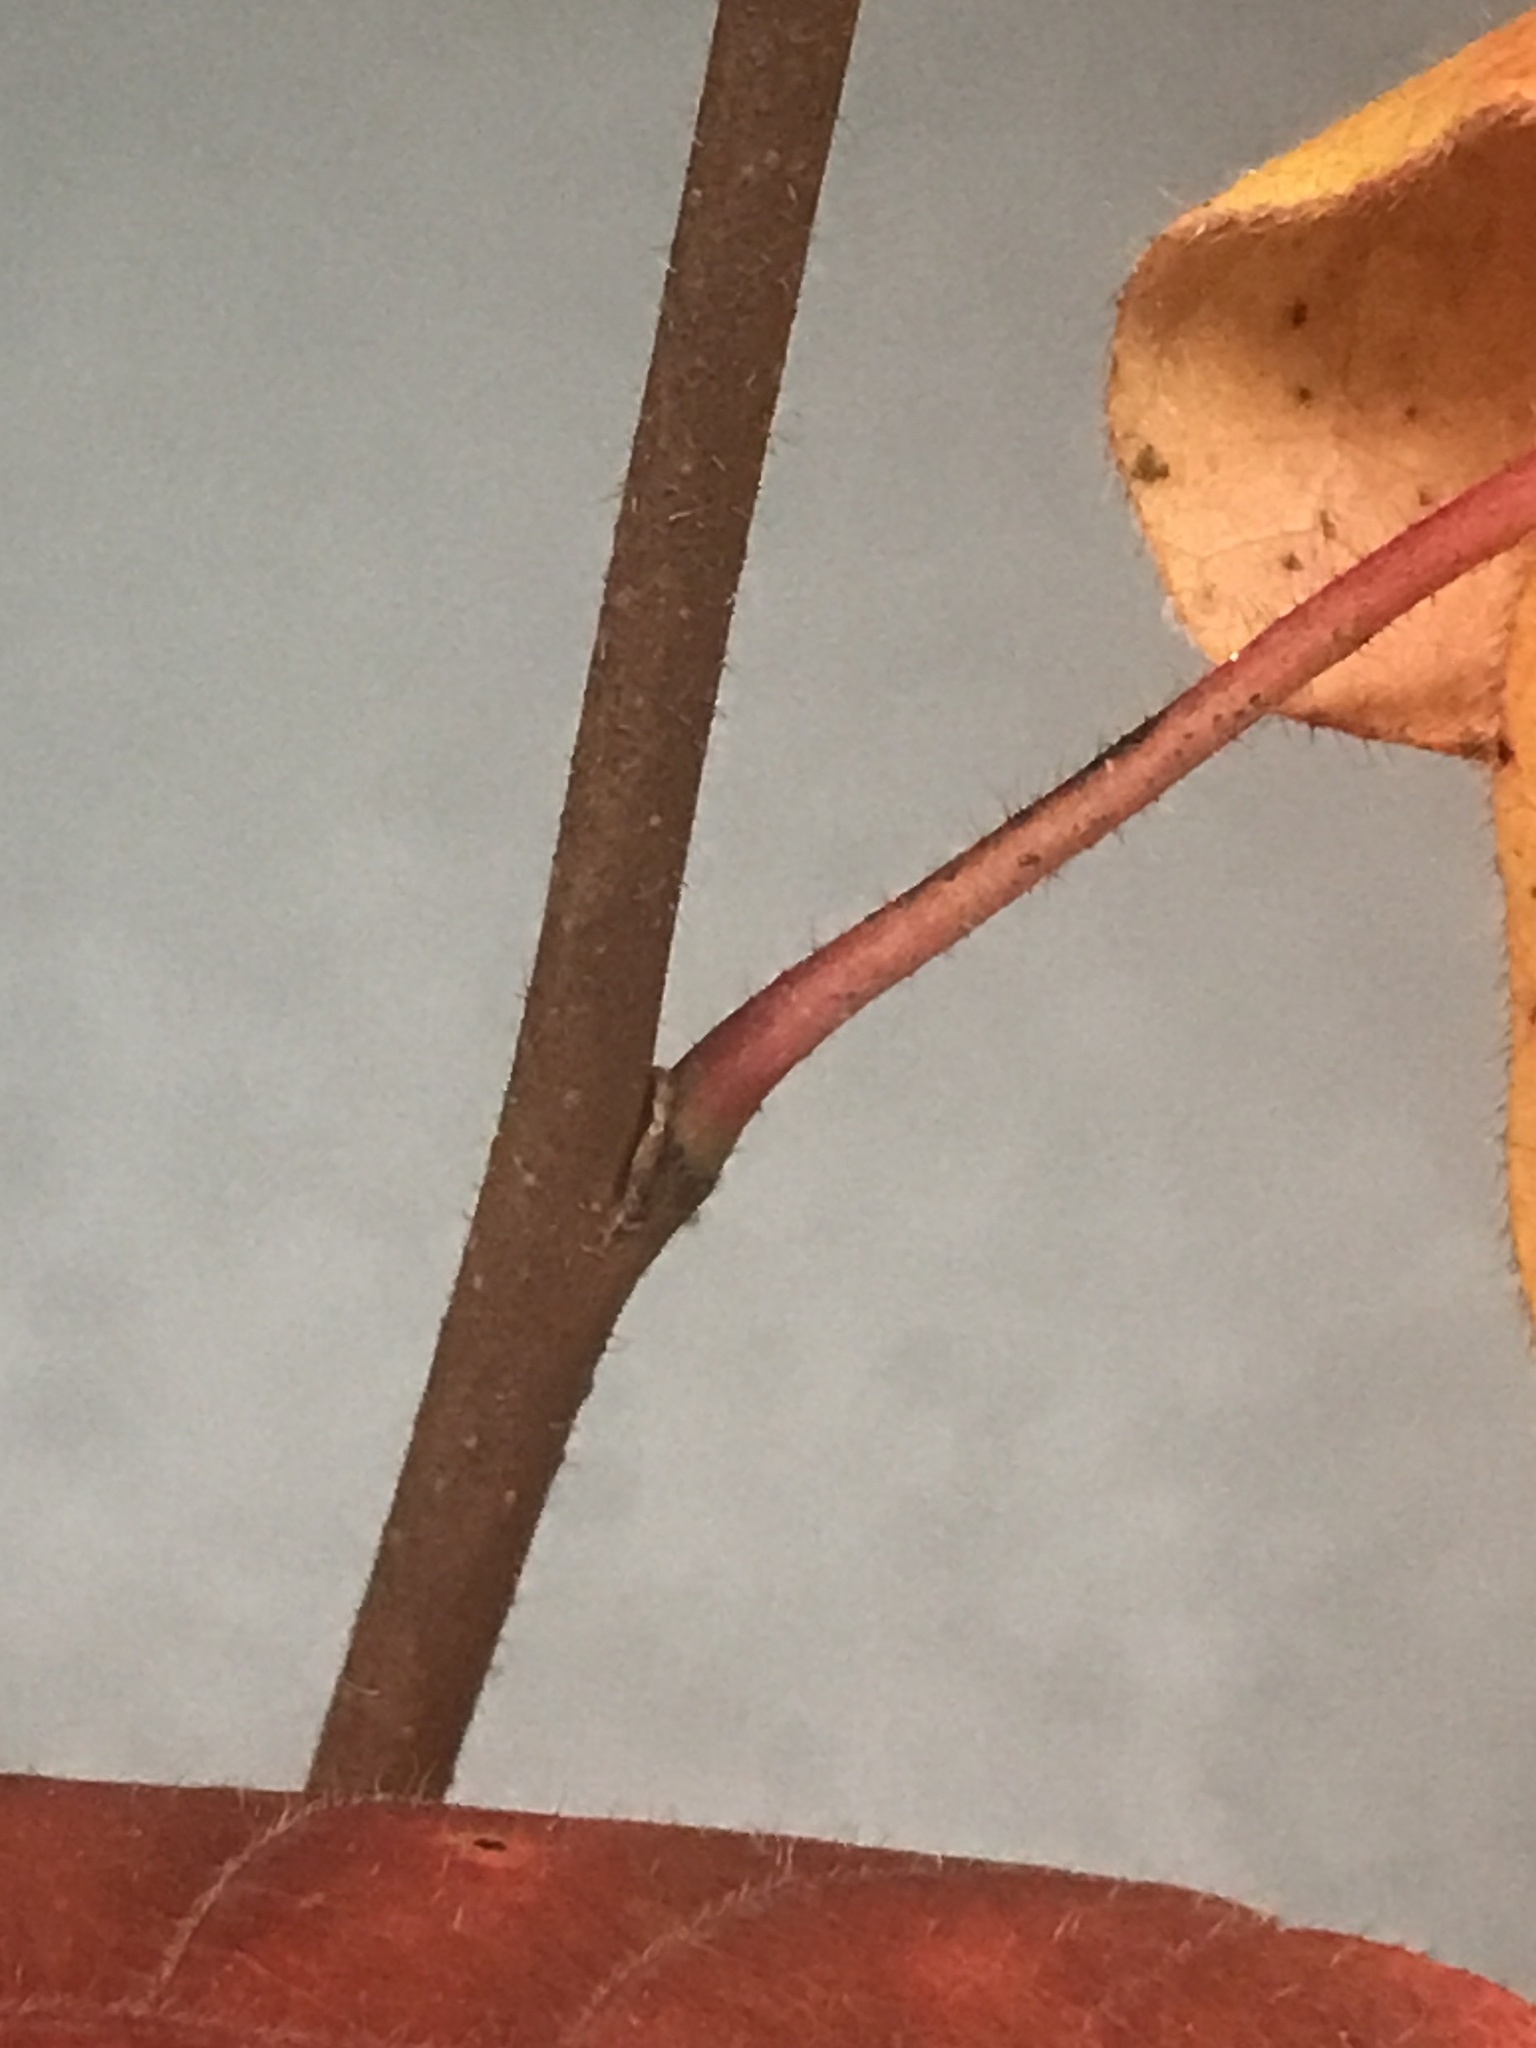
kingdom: Plantae
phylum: Tracheophyta
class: Magnoliopsida
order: Sapindales
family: Anacardiaceae
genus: Rhus
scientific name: Rhus aromatica
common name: Aromatic sumac
